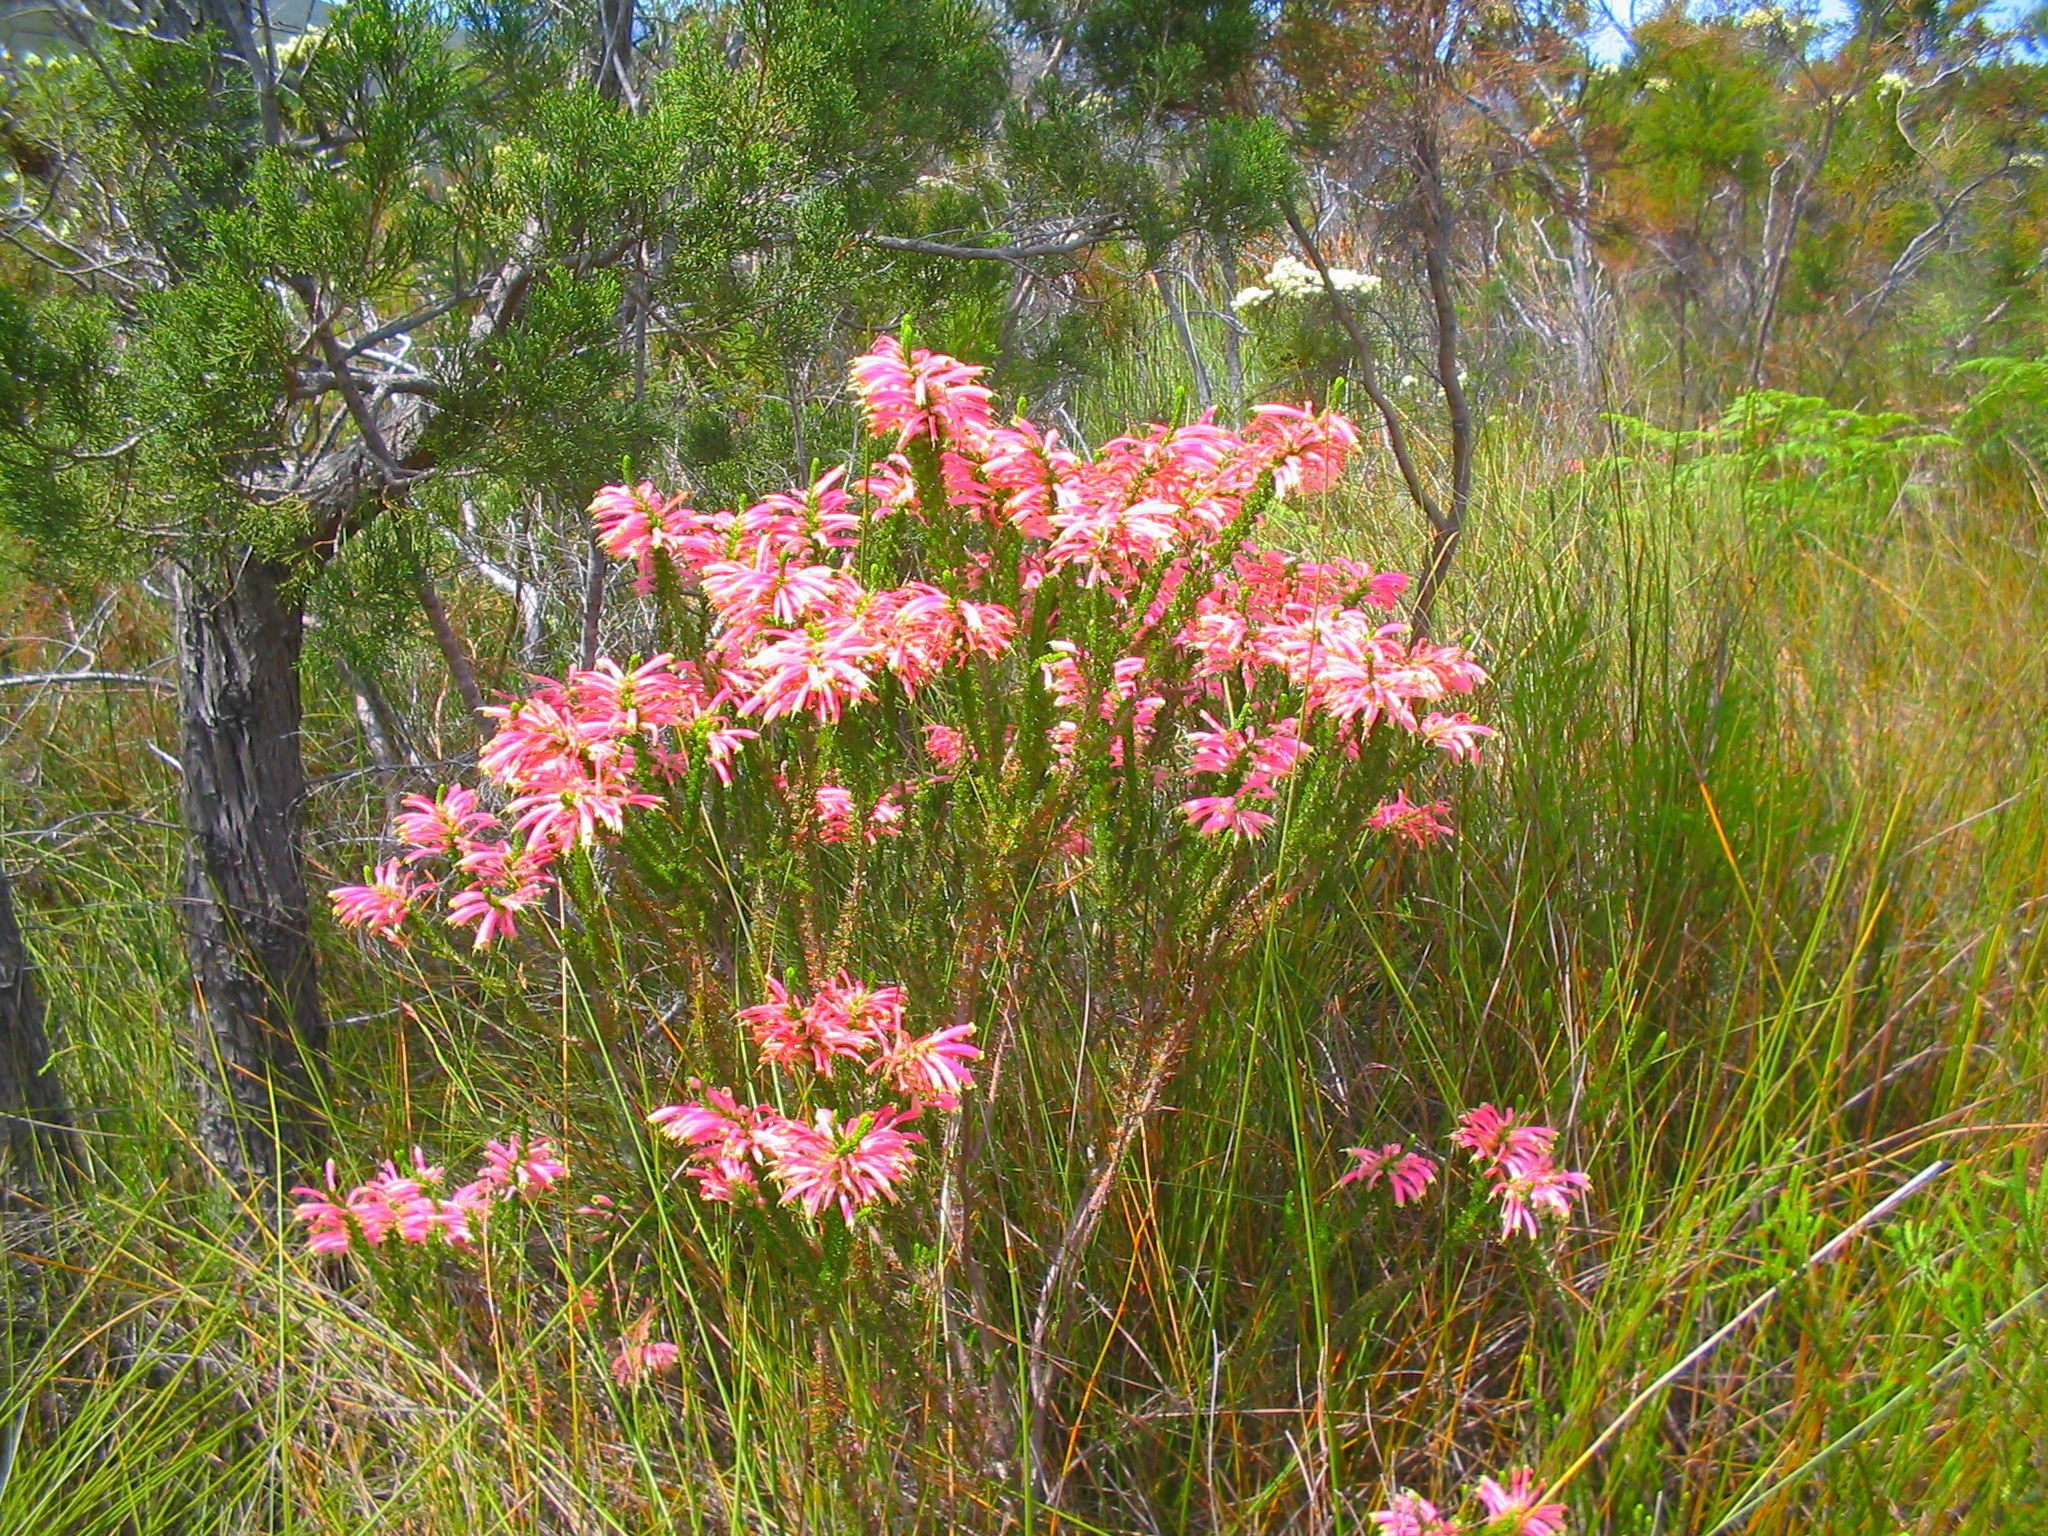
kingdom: Plantae
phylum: Tracheophyta
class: Magnoliopsida
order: Ericales
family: Ericaceae
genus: Erica
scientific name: Erica densifolia
